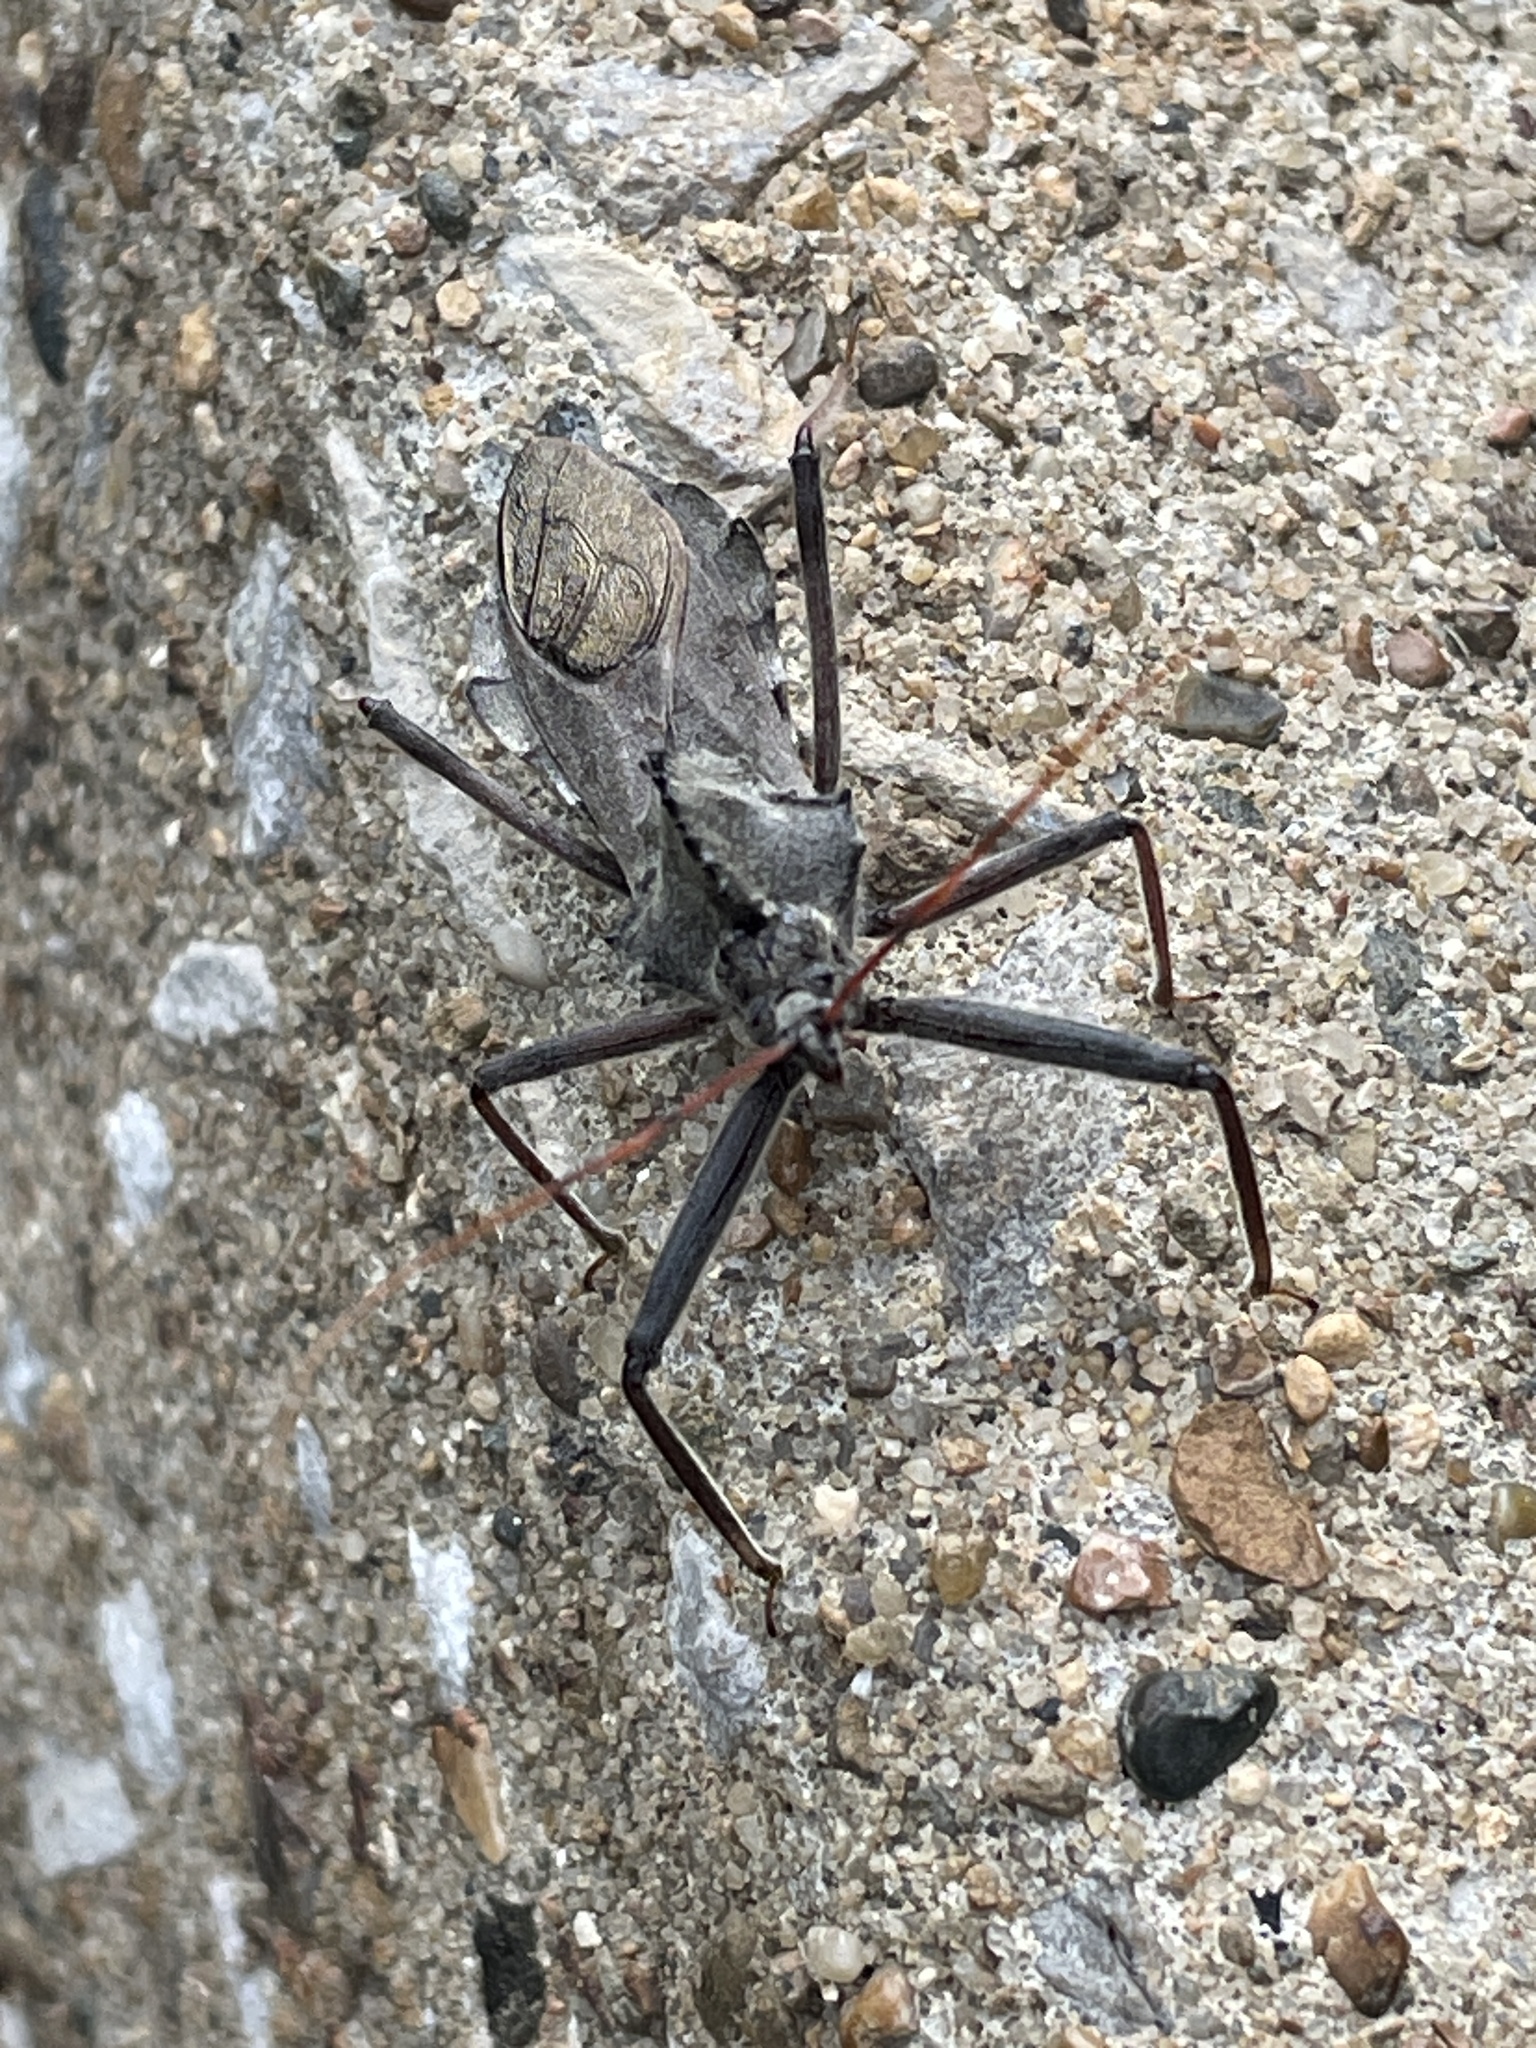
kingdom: Animalia
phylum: Arthropoda
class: Insecta
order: Hemiptera
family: Reduviidae
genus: Arilus
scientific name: Arilus cristatus
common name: North american wheel bug
